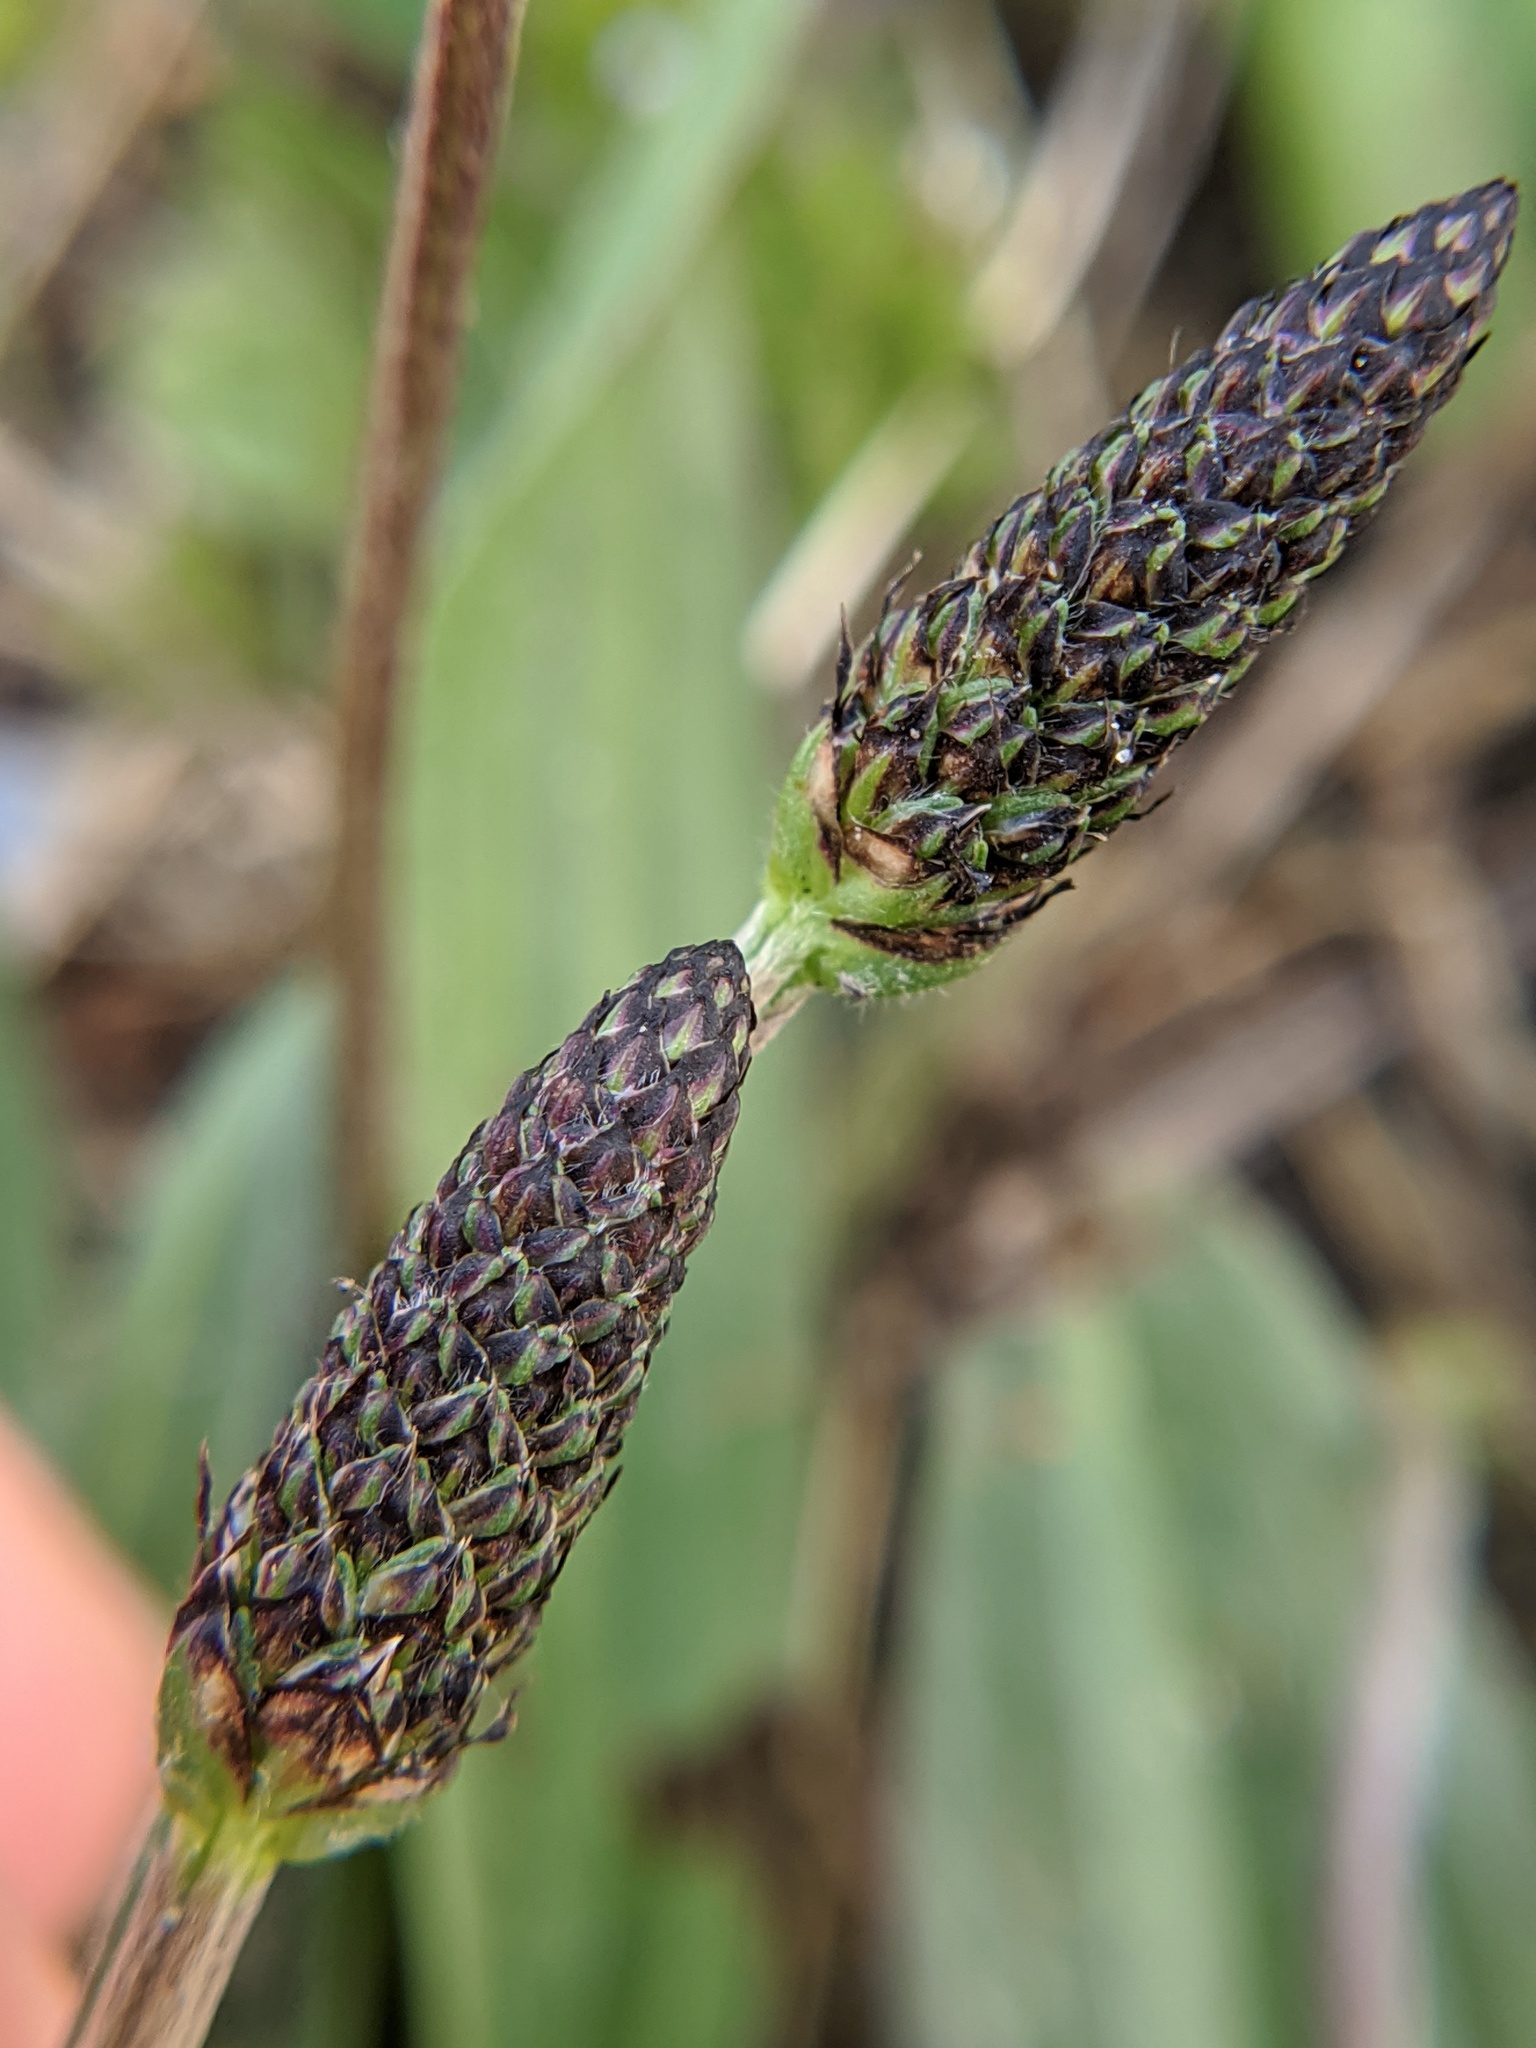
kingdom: Plantae
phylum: Tracheophyta
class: Magnoliopsida
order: Lamiales
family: Plantaginaceae
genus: Plantago
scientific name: Plantago lanceolata
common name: Ribwort plantain
